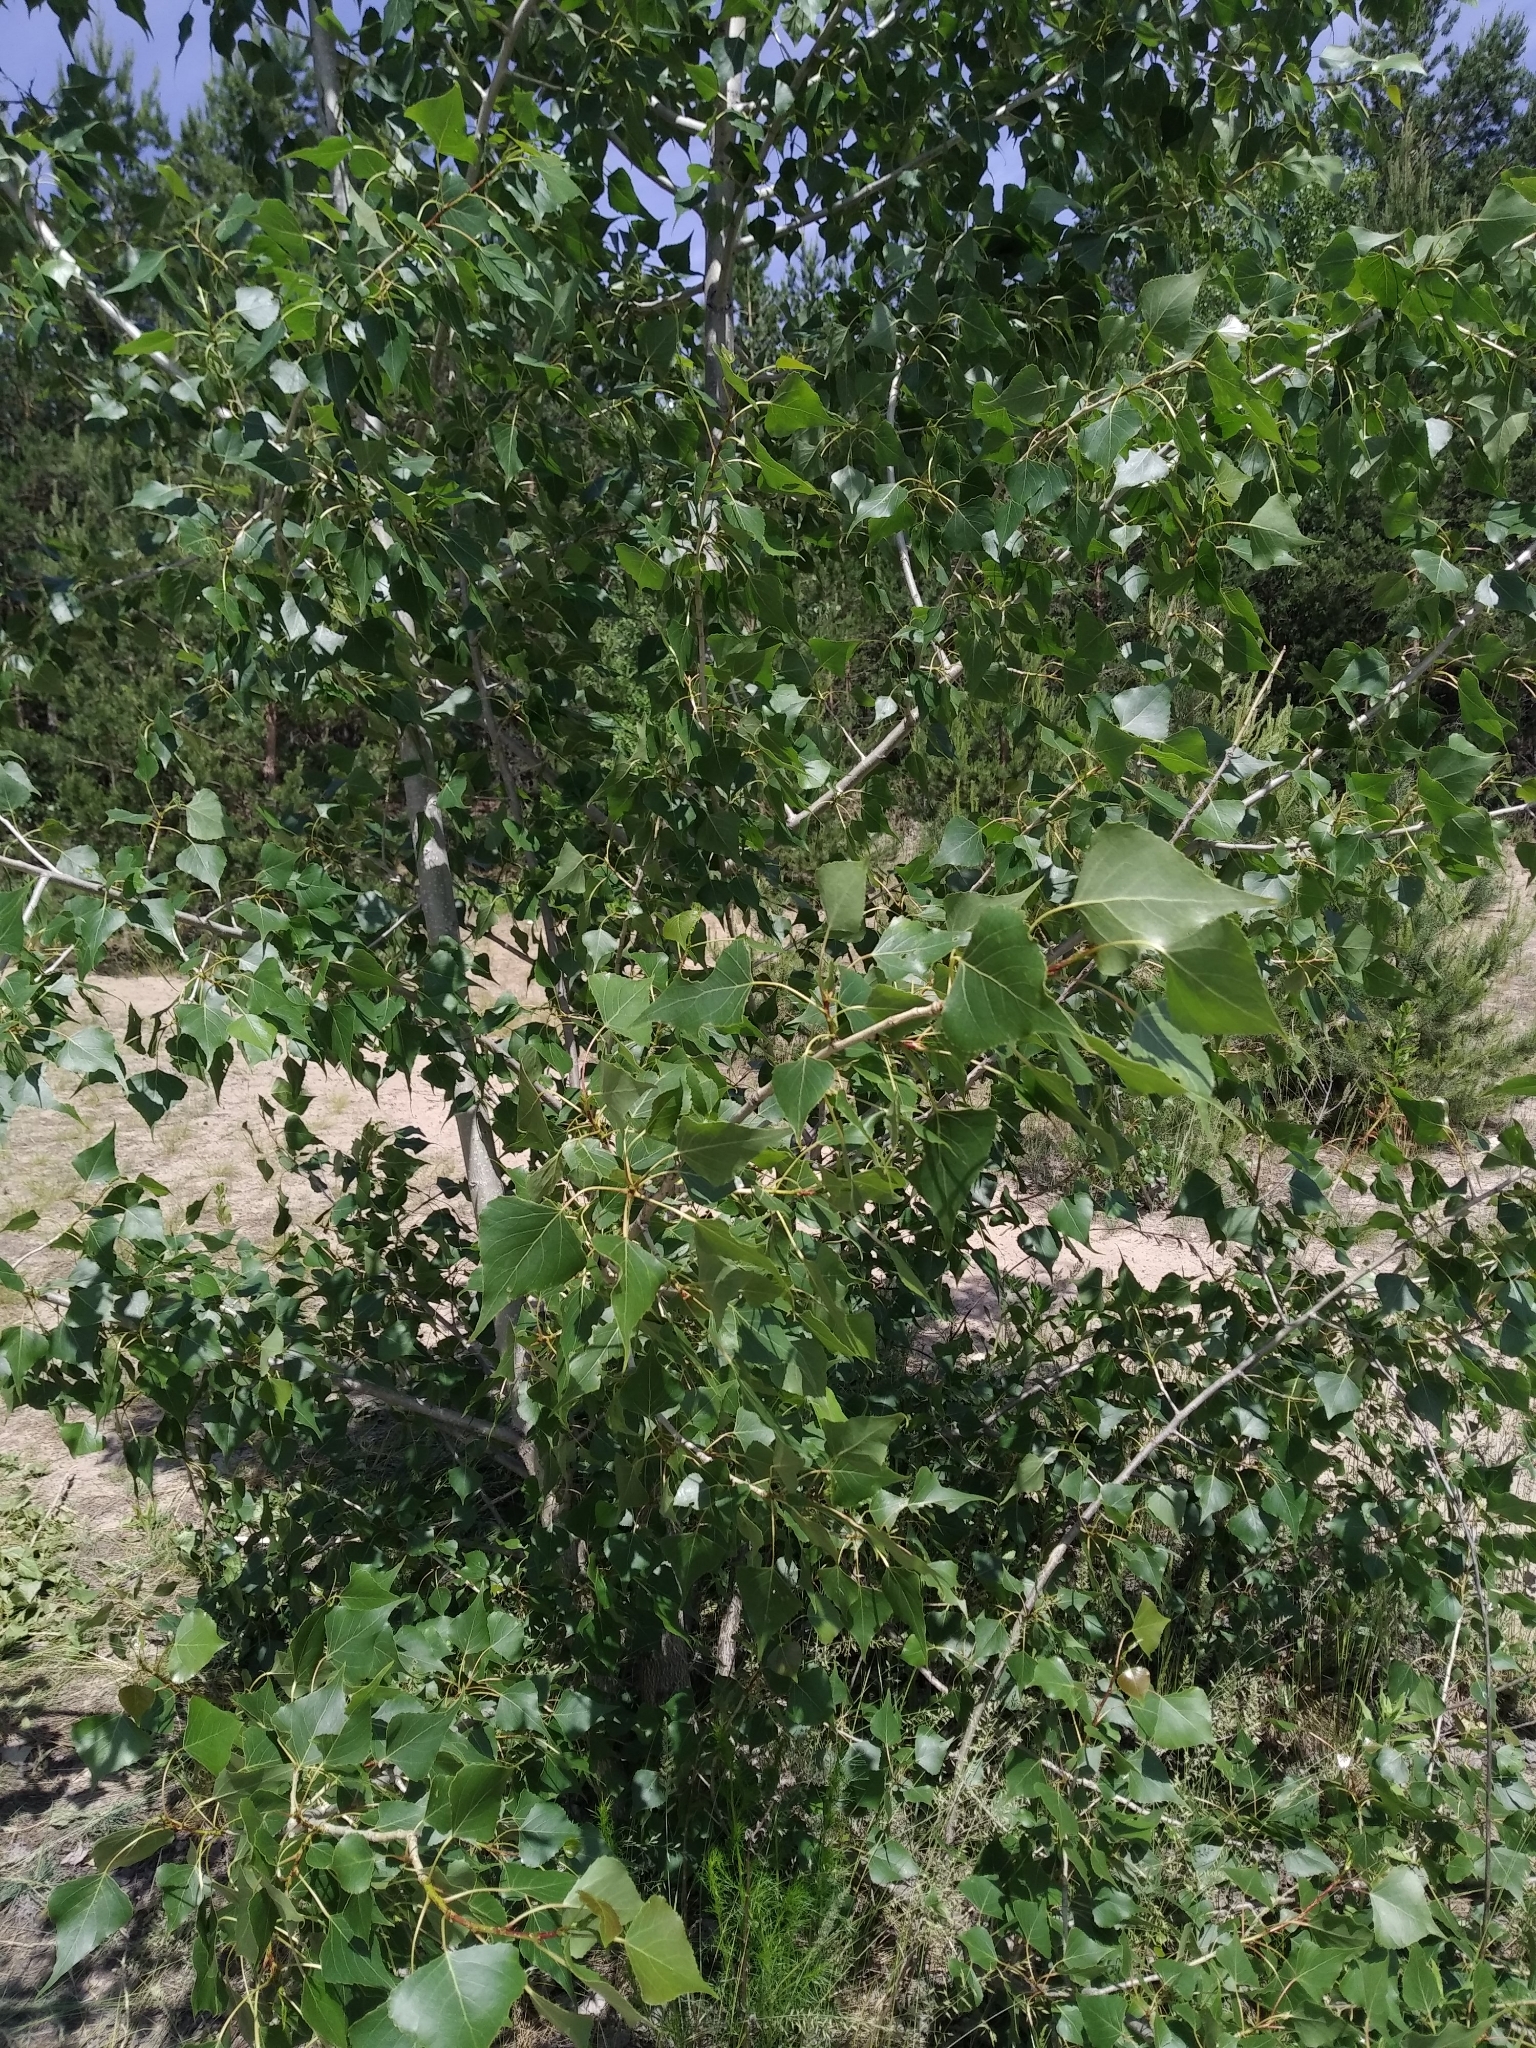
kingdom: Plantae
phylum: Tracheophyta
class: Magnoliopsida
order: Malpighiales
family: Salicaceae
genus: Populus
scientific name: Populus nigra
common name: Black poplar
